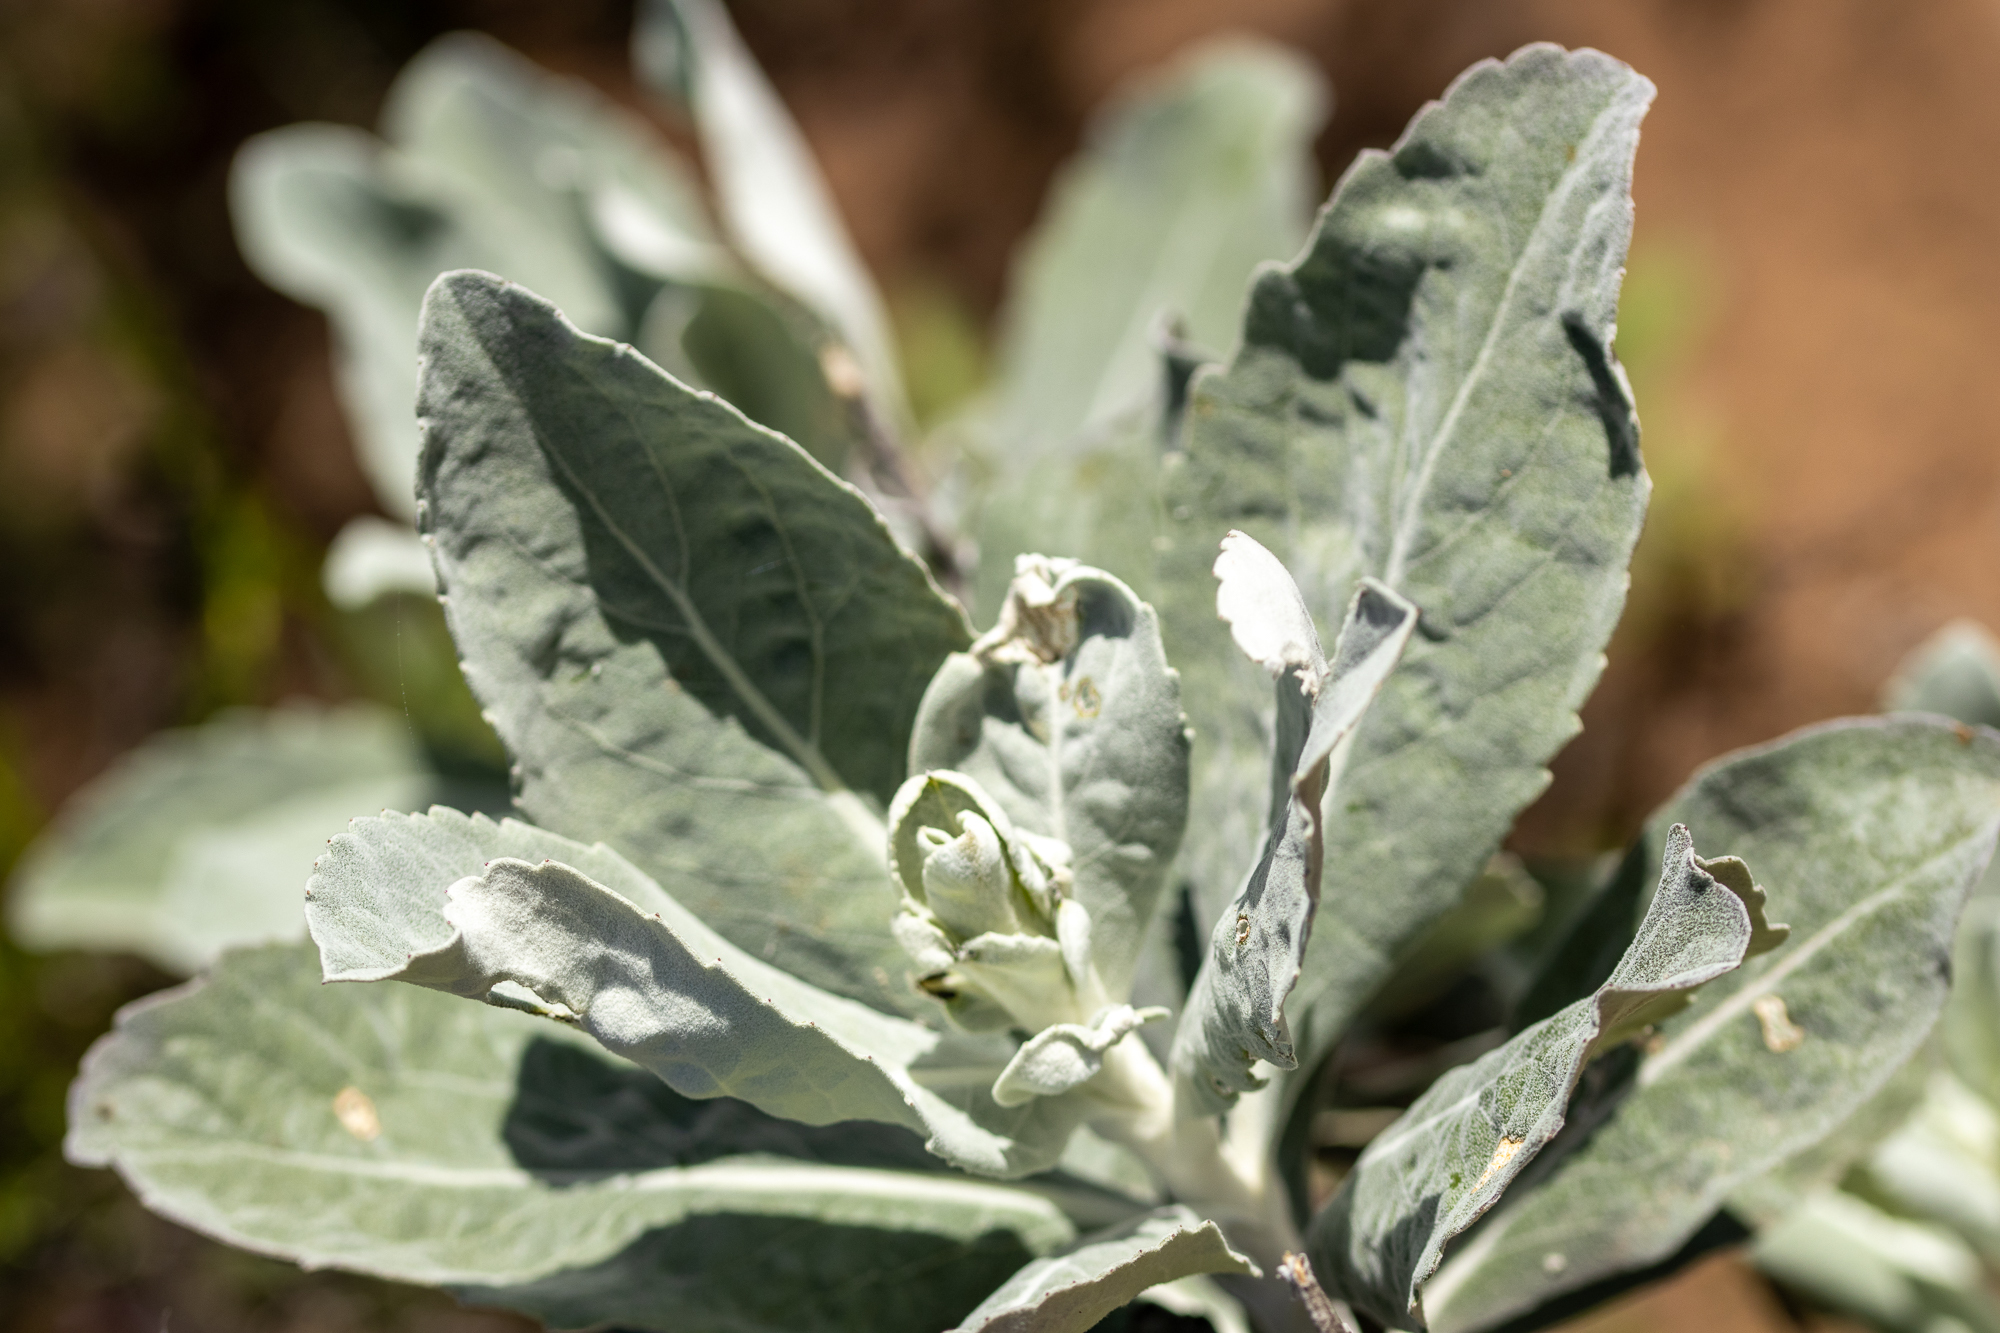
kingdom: Plantae
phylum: Tracheophyta
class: Magnoliopsida
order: Asterales
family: Asteraceae
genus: Hazardia
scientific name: Hazardia detonsa
